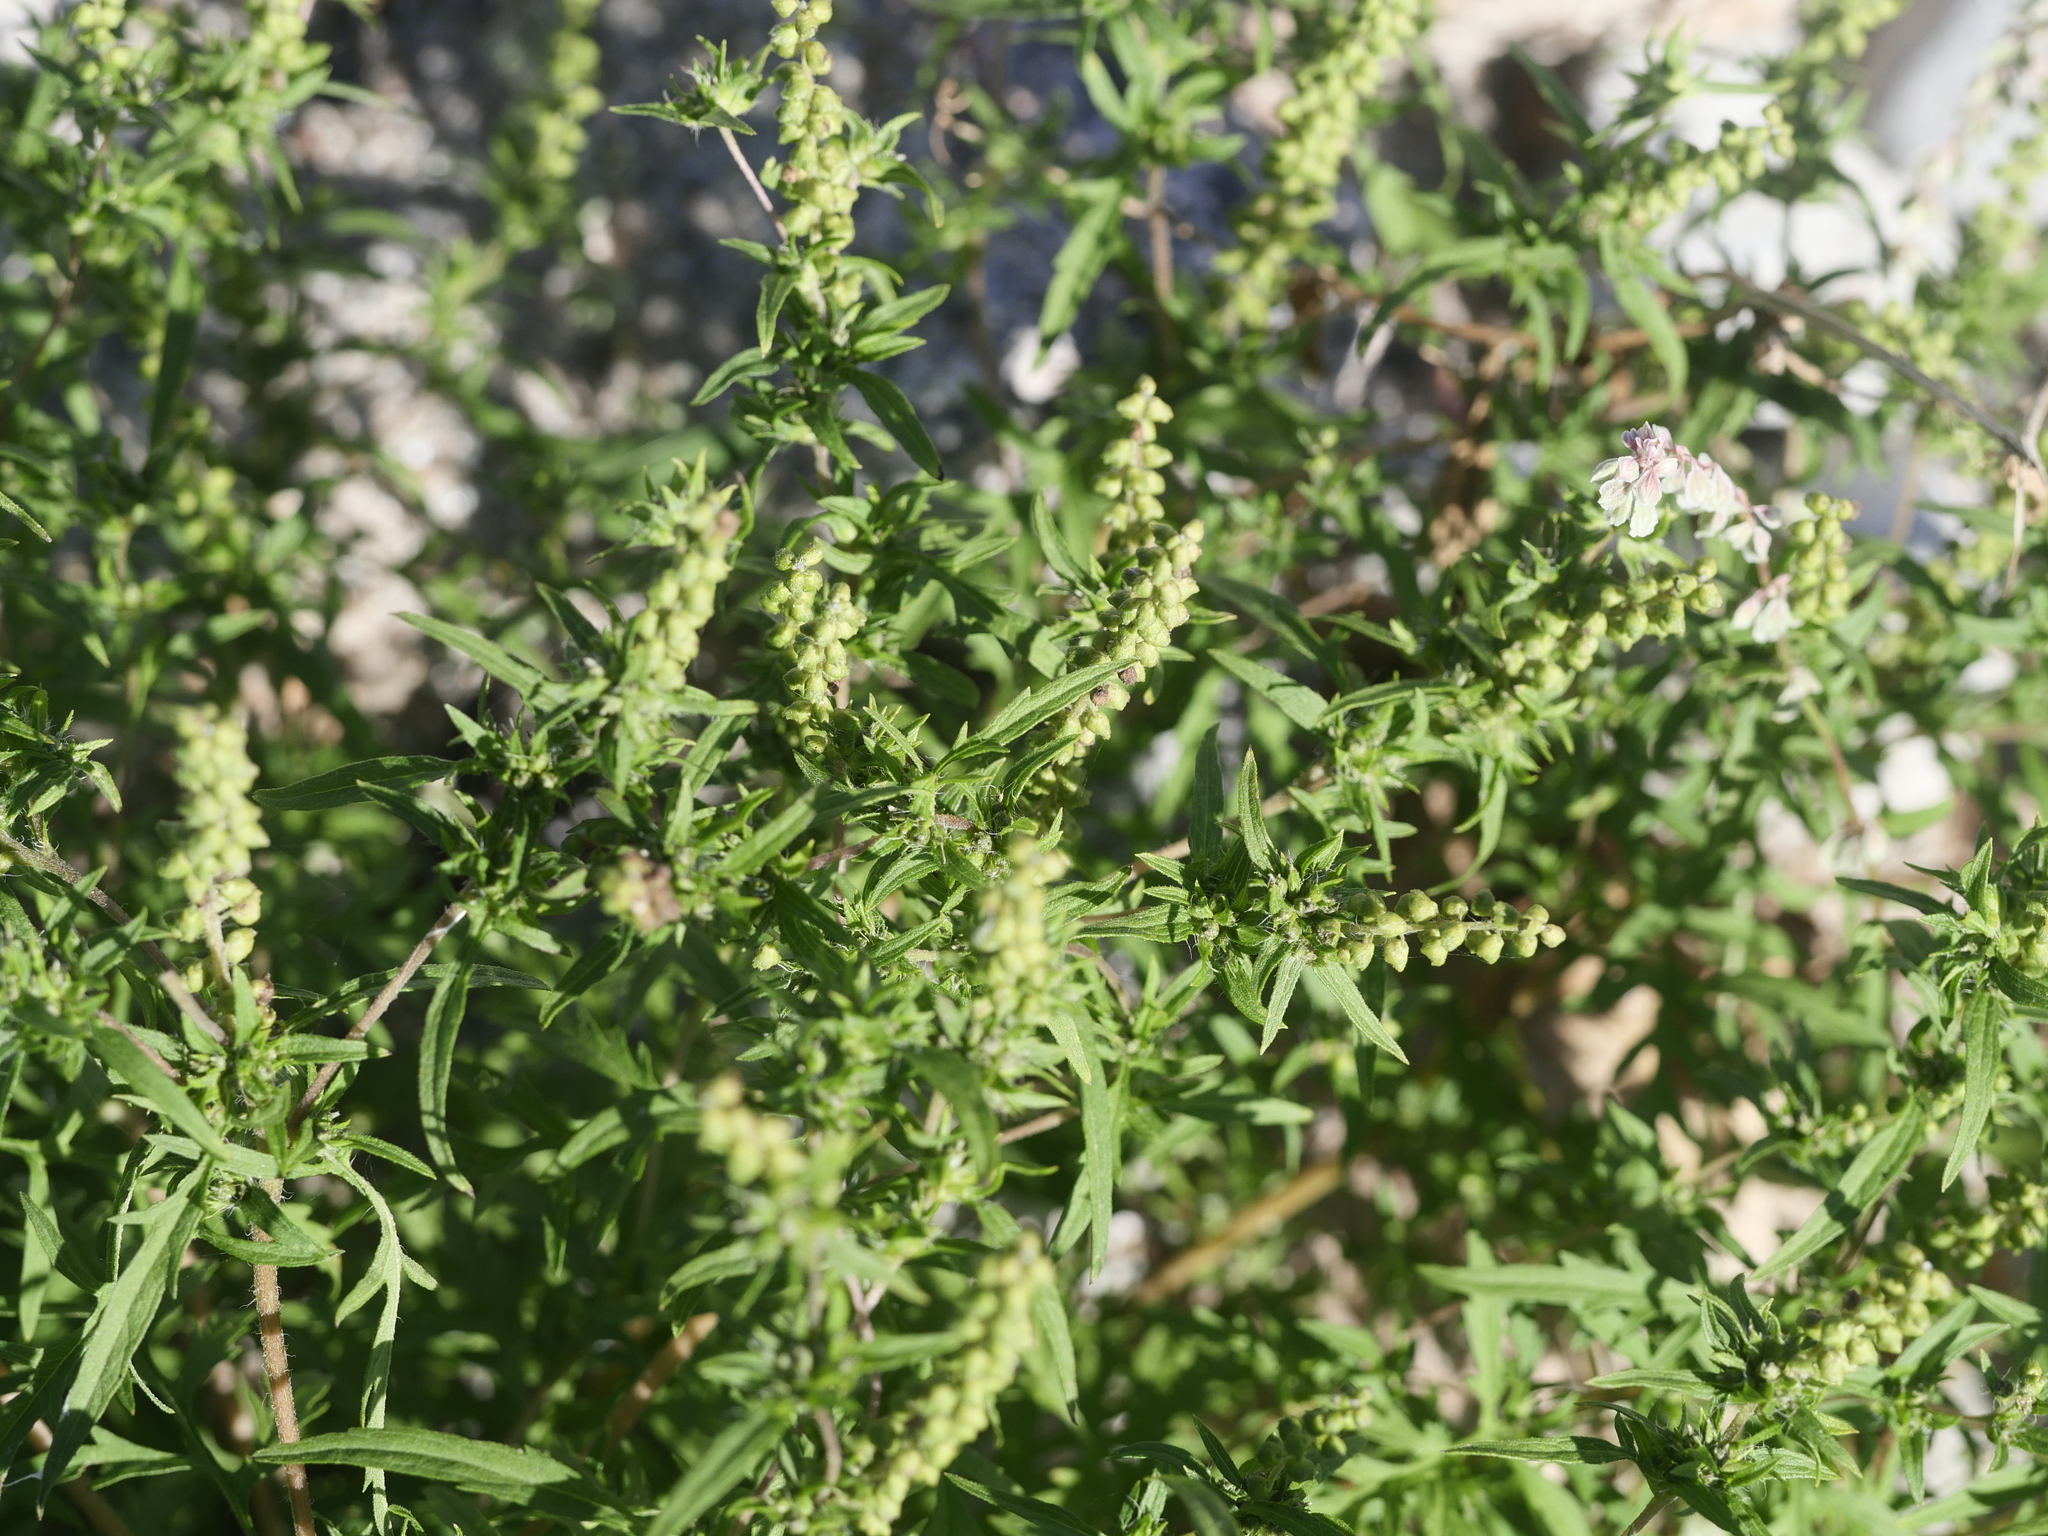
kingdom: Plantae
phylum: Tracheophyta
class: Magnoliopsida
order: Asterales
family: Asteraceae
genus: Ambrosia
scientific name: Ambrosia artemisiifolia
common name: Annual ragweed
